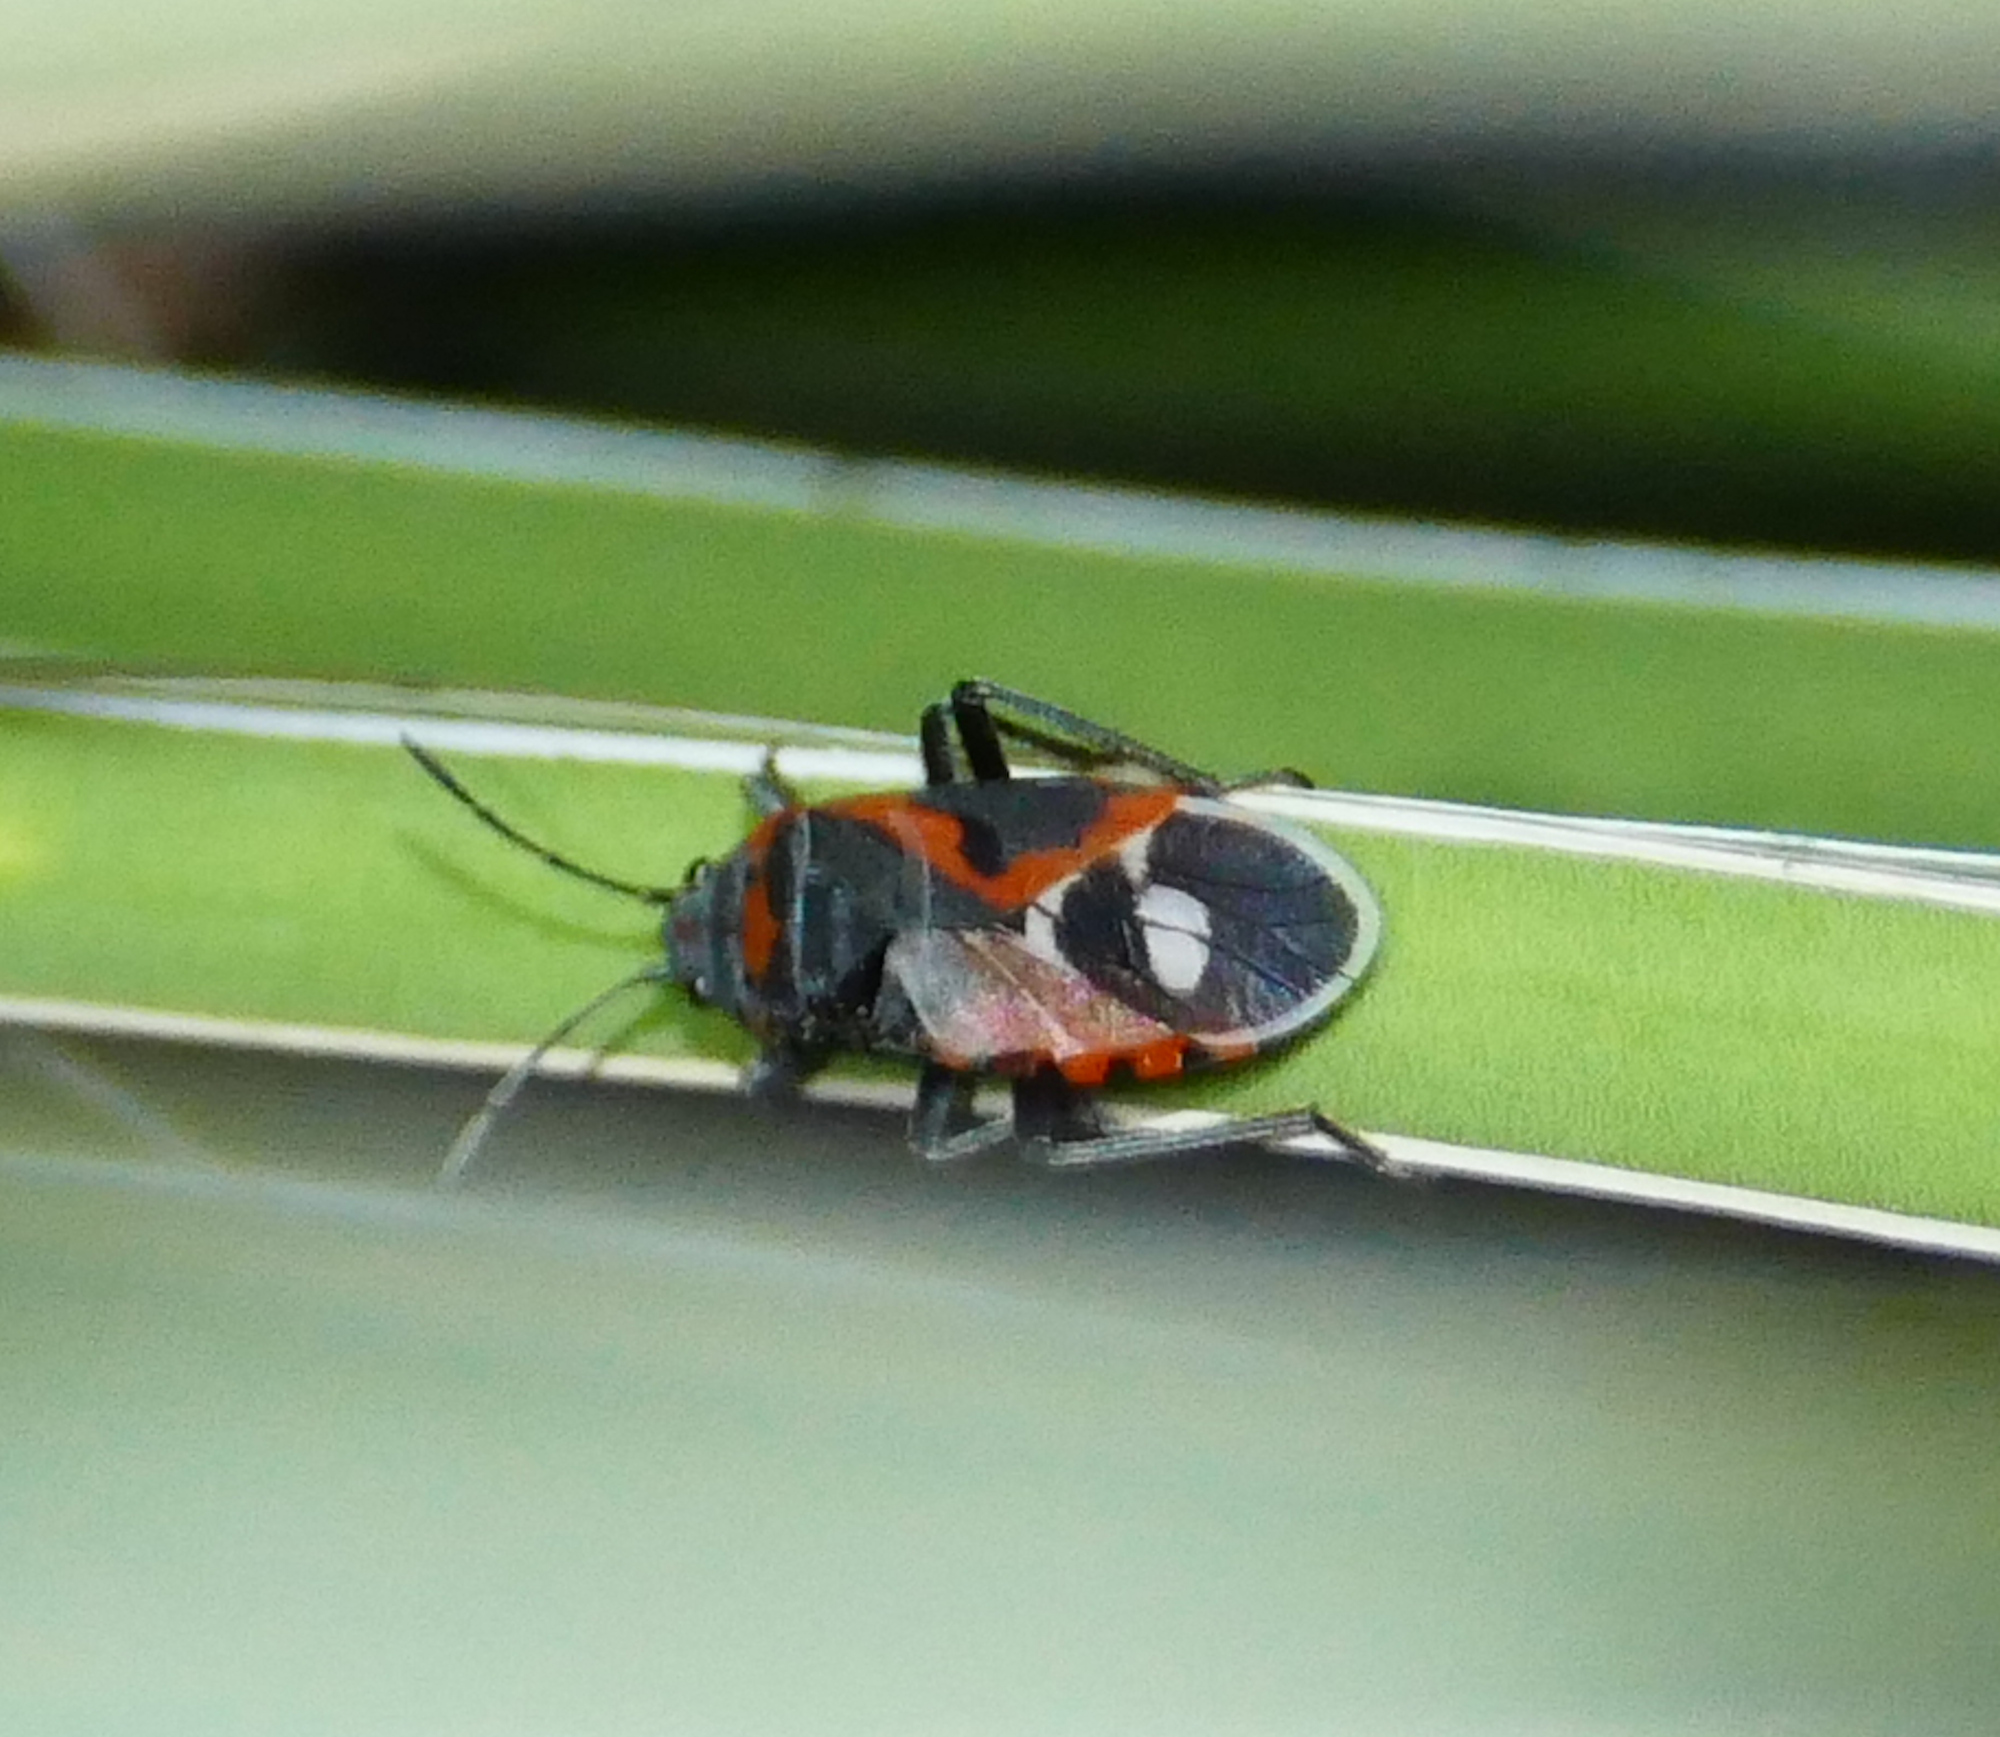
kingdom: Animalia
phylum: Arthropoda
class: Insecta
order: Hemiptera
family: Lygaeidae
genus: Lygaeus
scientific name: Lygaeus kalmii
